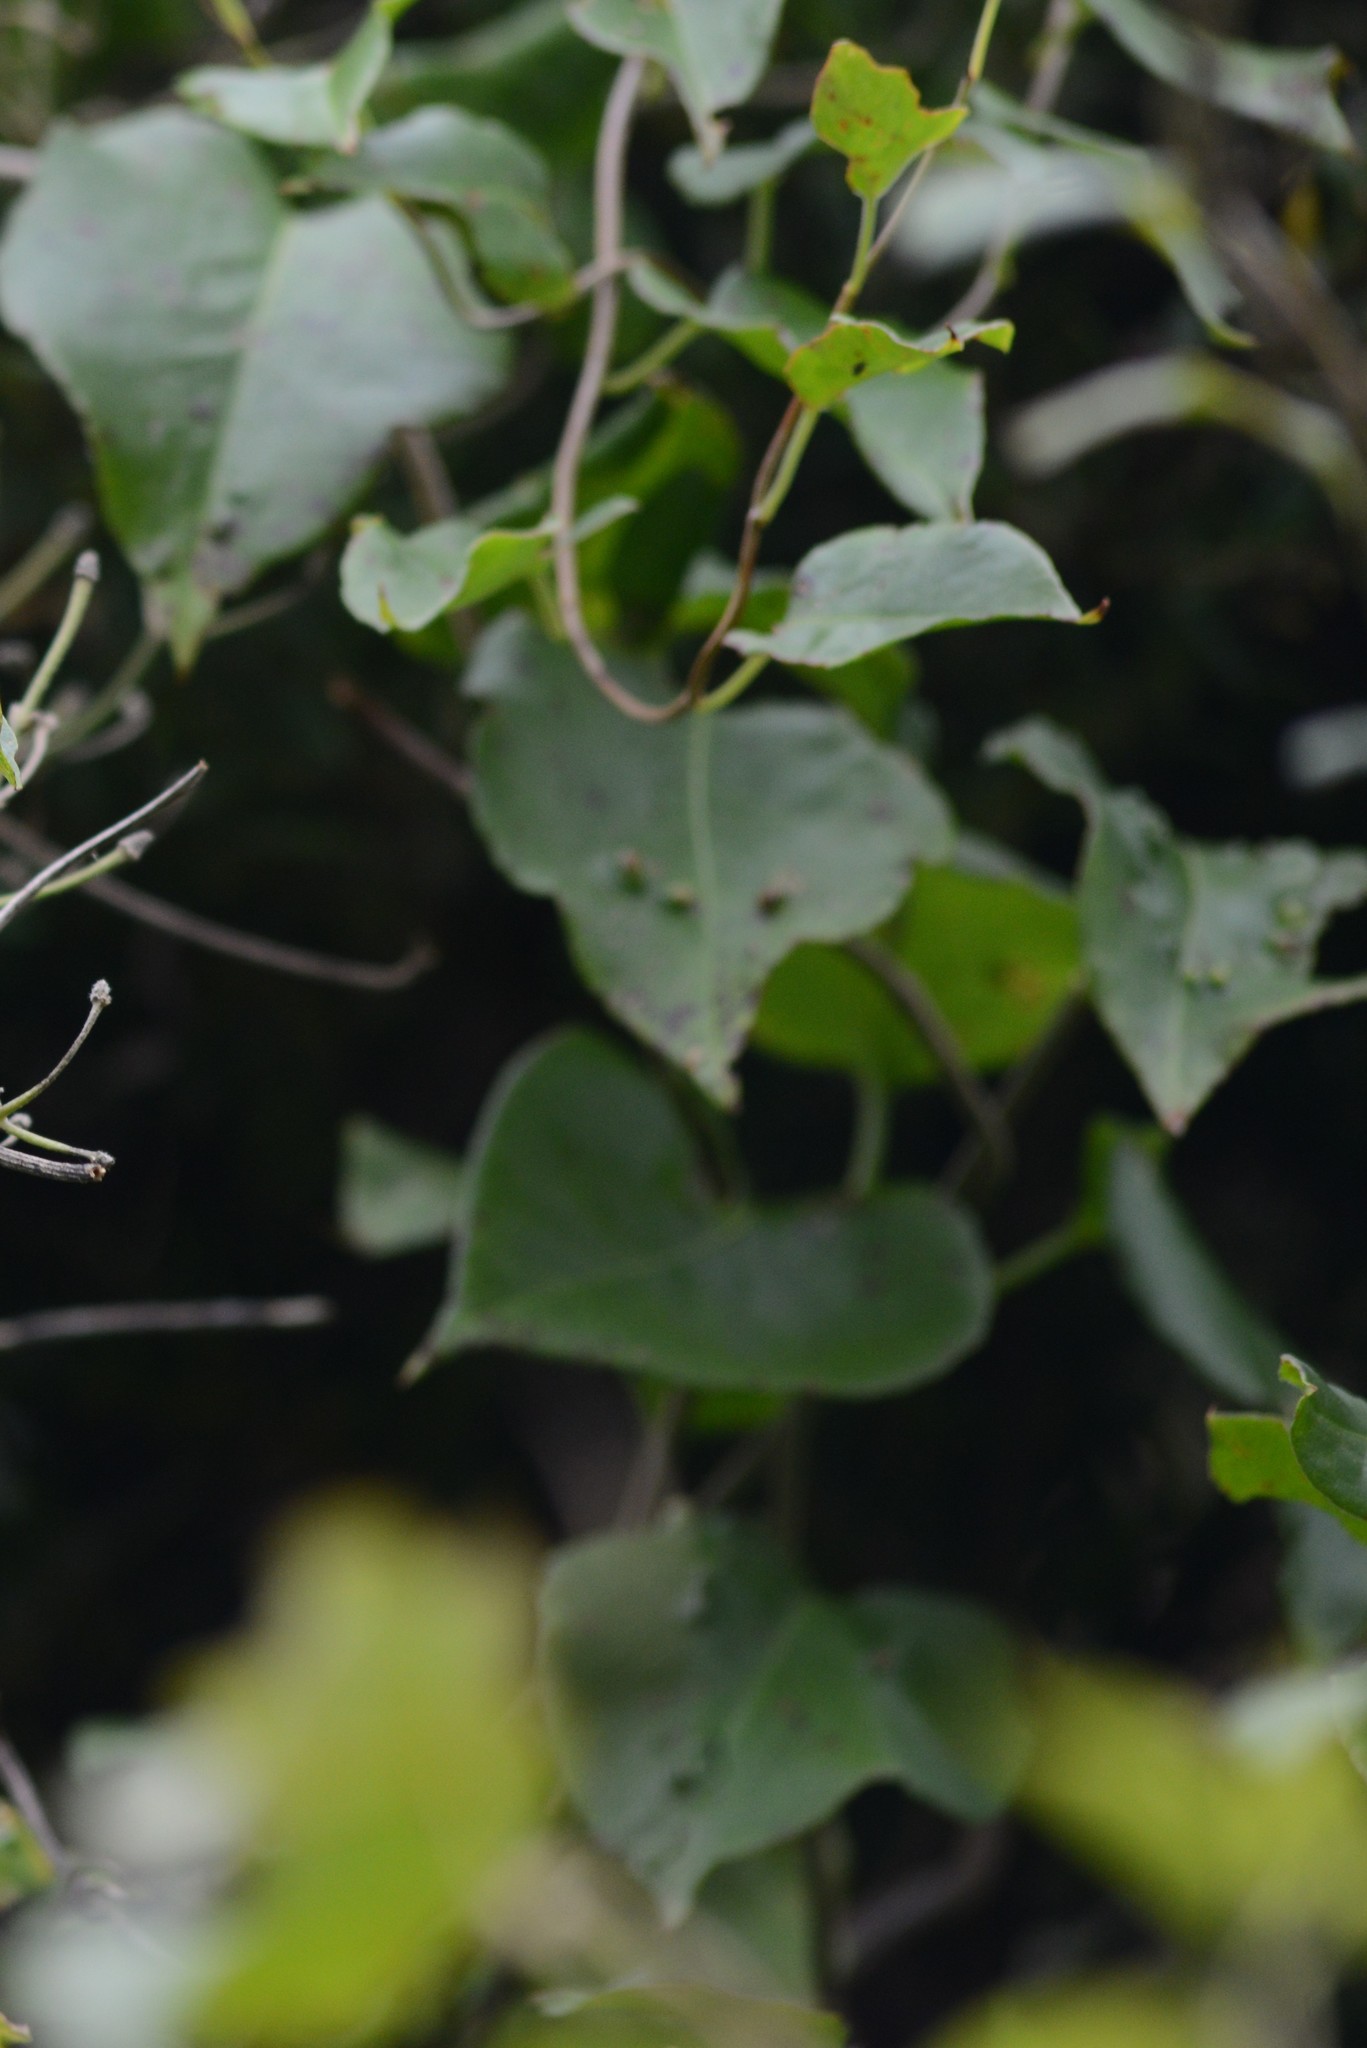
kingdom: Animalia
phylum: Arthropoda
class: Arachnida
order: Trombidiformes
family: Eriophyidae
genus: Aceria
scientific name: Aceria lamii
